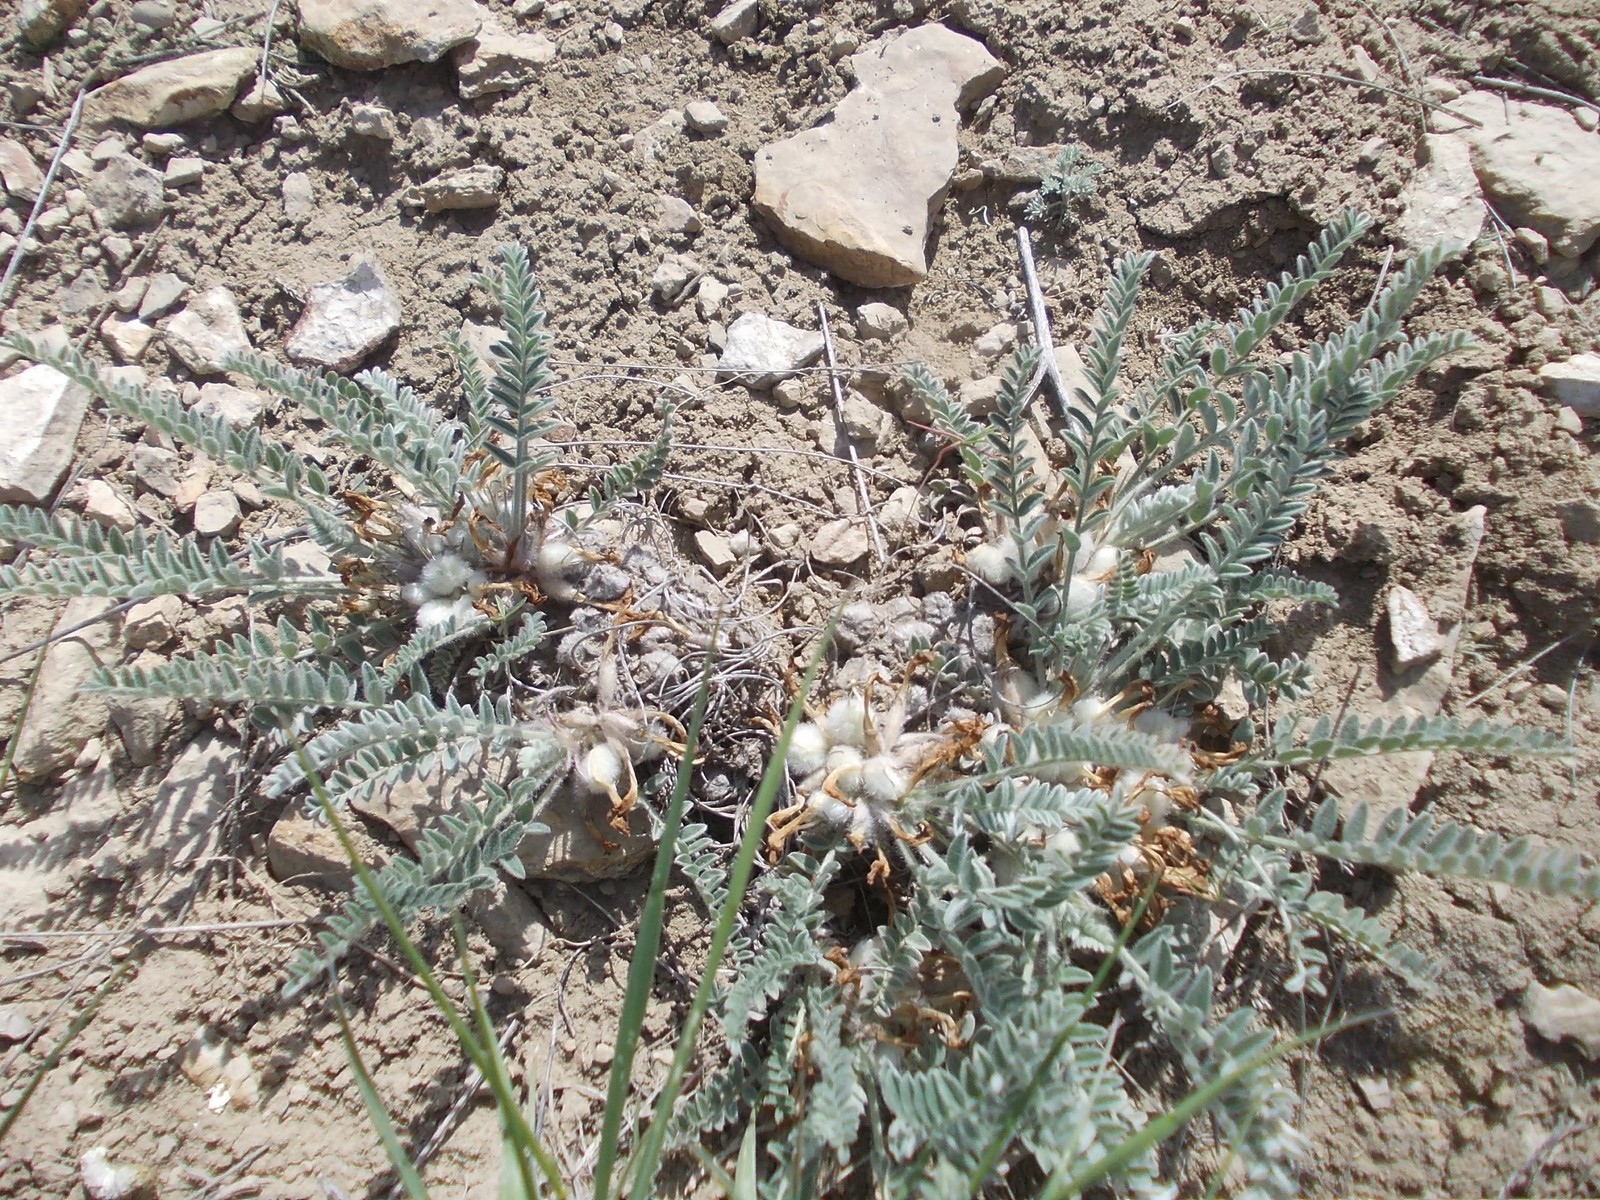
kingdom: Plantae
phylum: Tracheophyta
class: Magnoliopsida
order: Fabales
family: Fabaceae
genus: Astragalus
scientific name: Astragalus testiculatus
